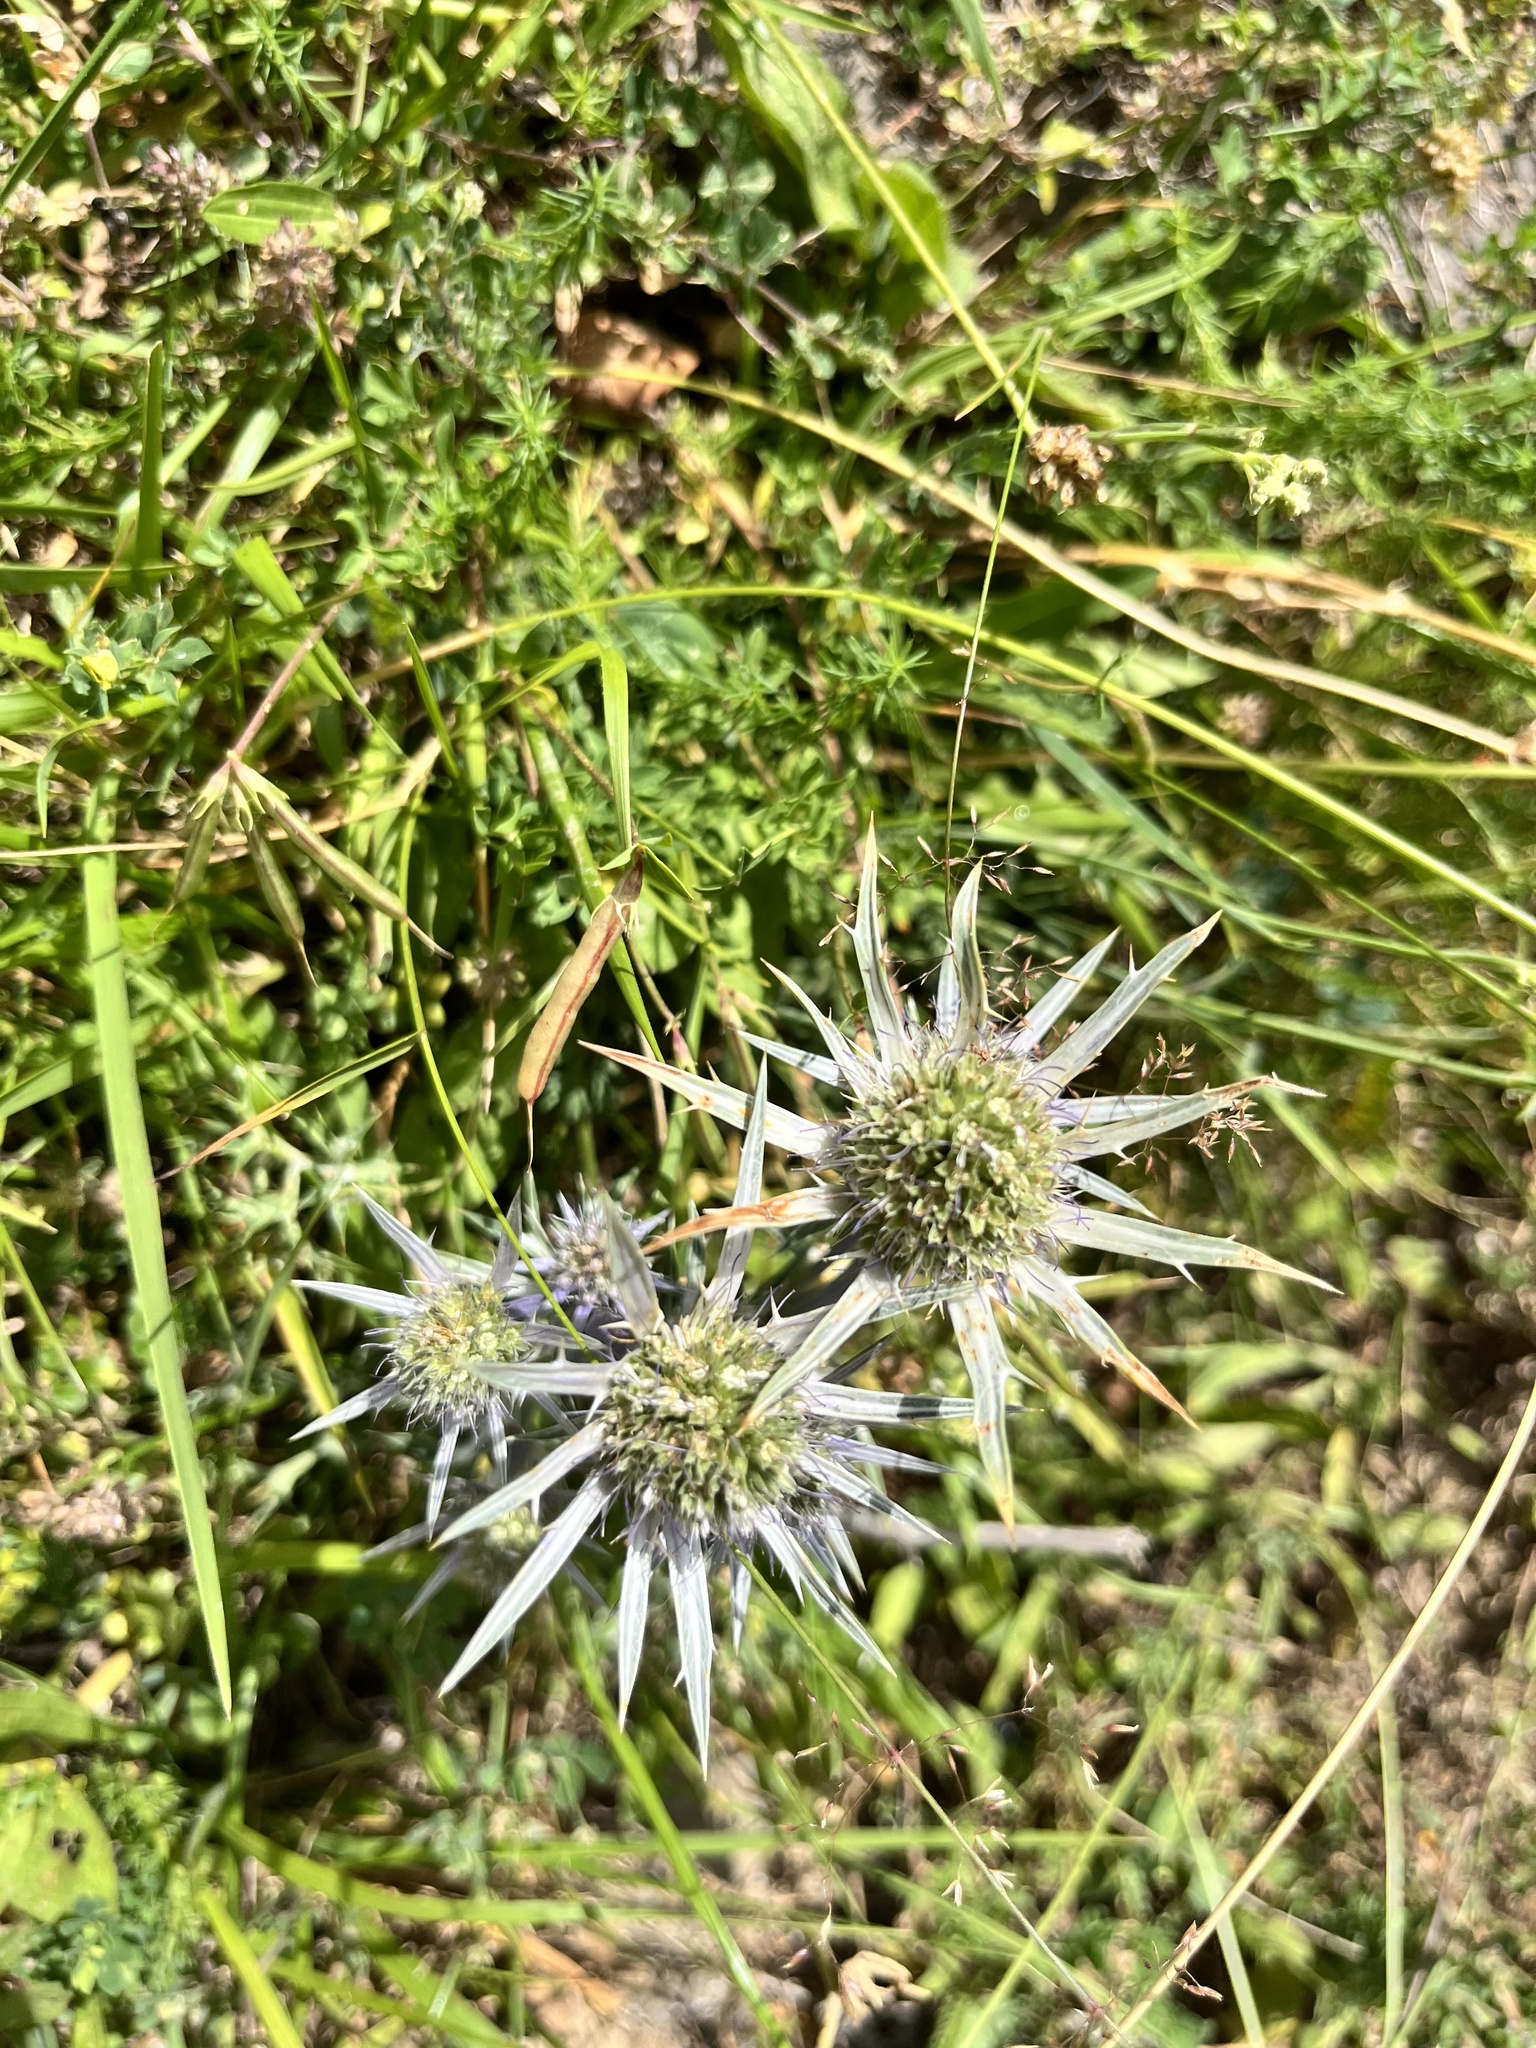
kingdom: Plantae
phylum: Tracheophyta
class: Magnoliopsida
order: Apiales
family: Apiaceae
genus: Eryngium
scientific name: Eryngium bourgatii
